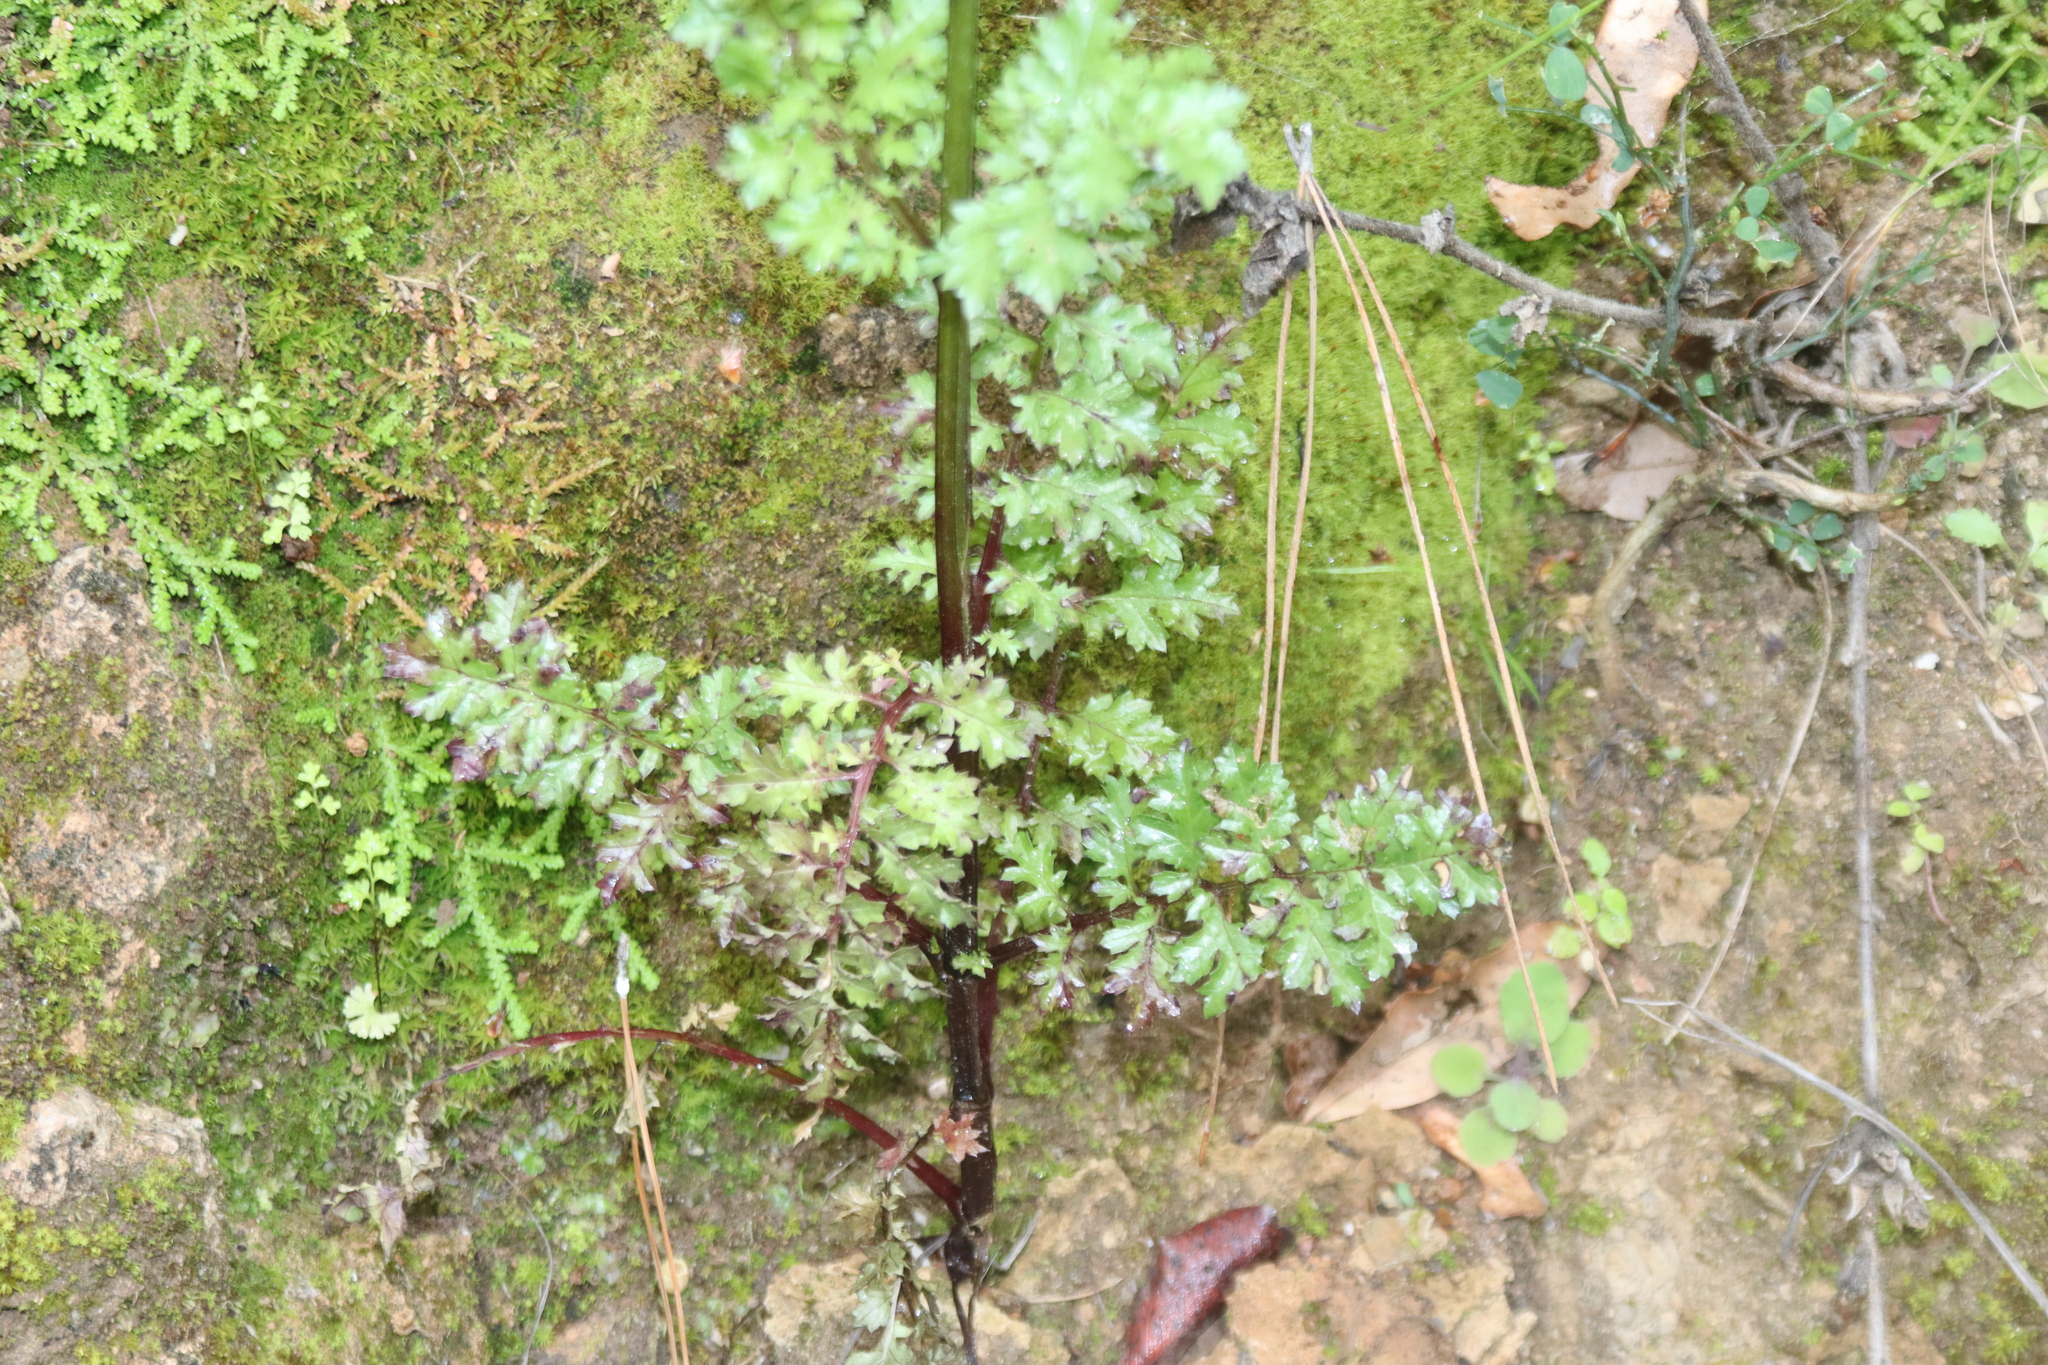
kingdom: Plantae
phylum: Tracheophyta
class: Magnoliopsida
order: Lamiales
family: Scrophulariaceae
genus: Scrophularia
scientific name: Scrophularia lucida
